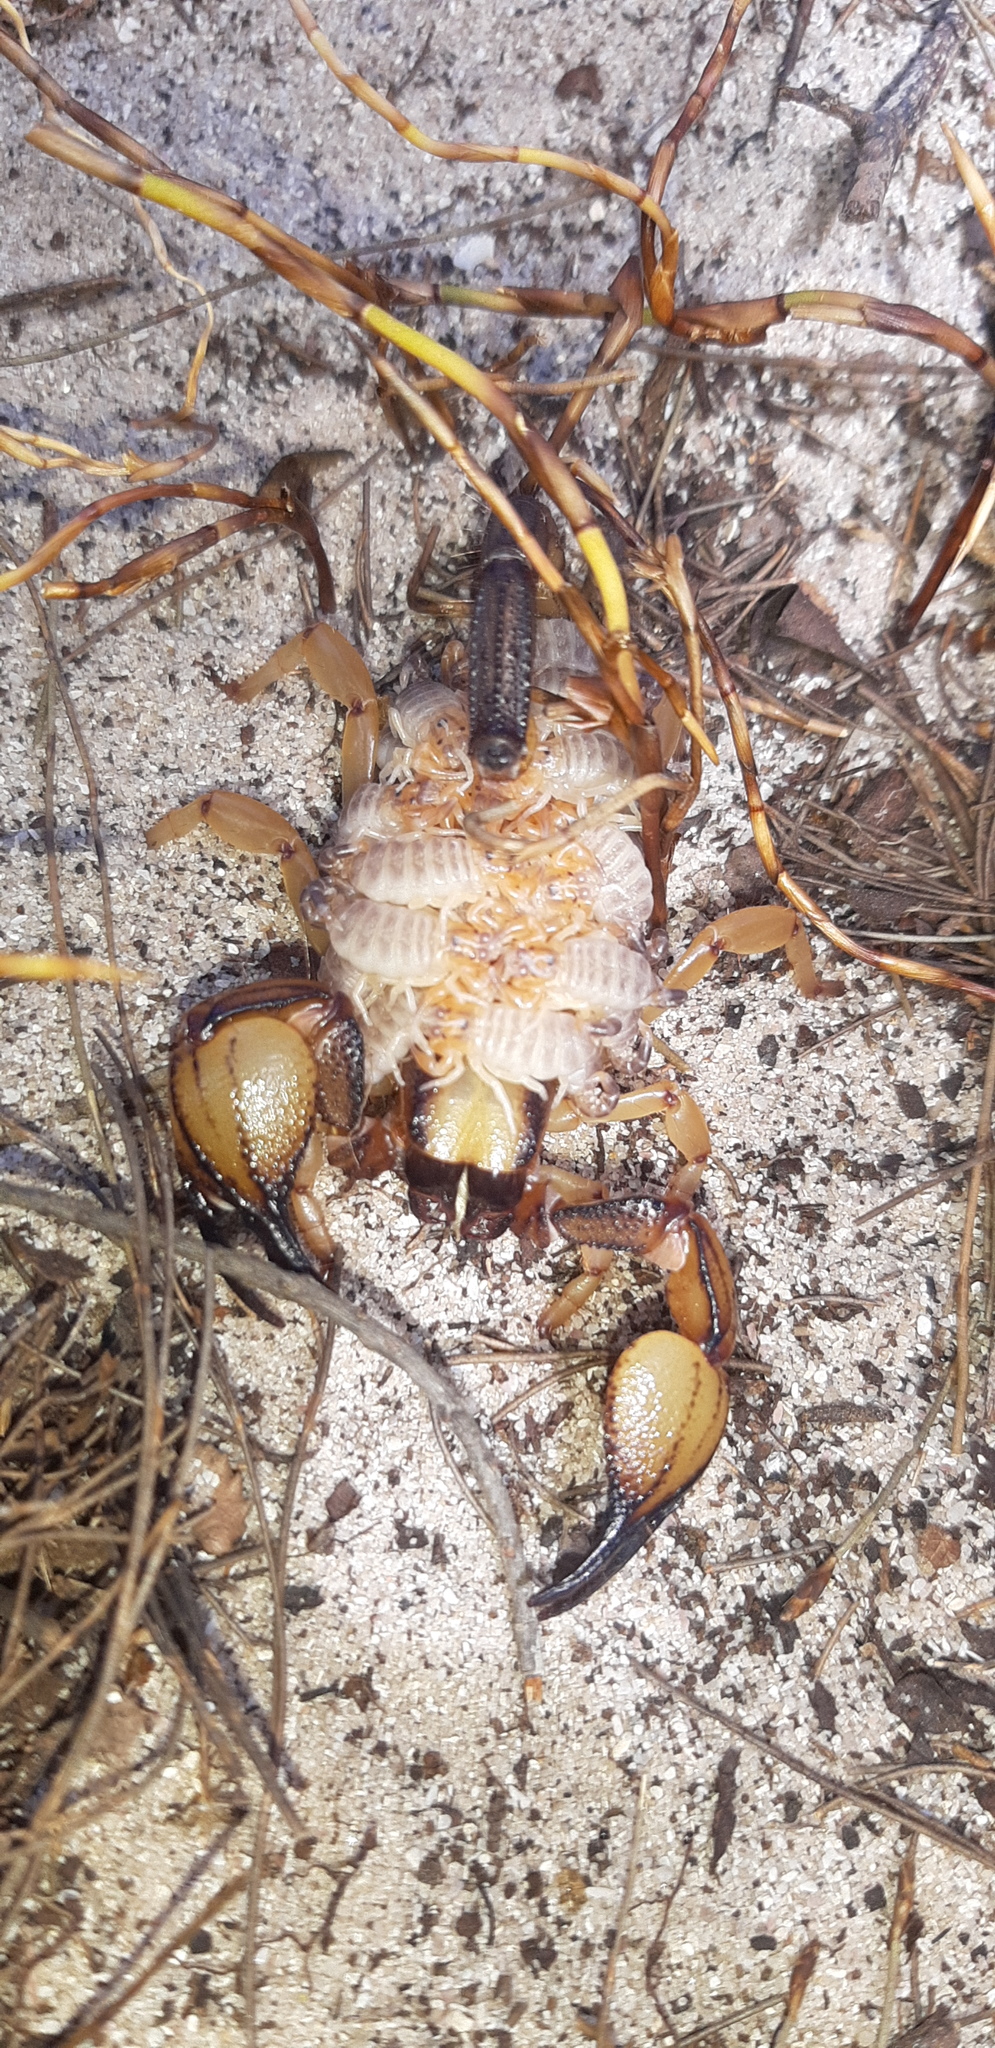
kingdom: Animalia
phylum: Arthropoda
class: Arachnida
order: Scorpiones
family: Scorpionidae
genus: Opistophthalmus
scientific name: Opistophthalmus capensis
